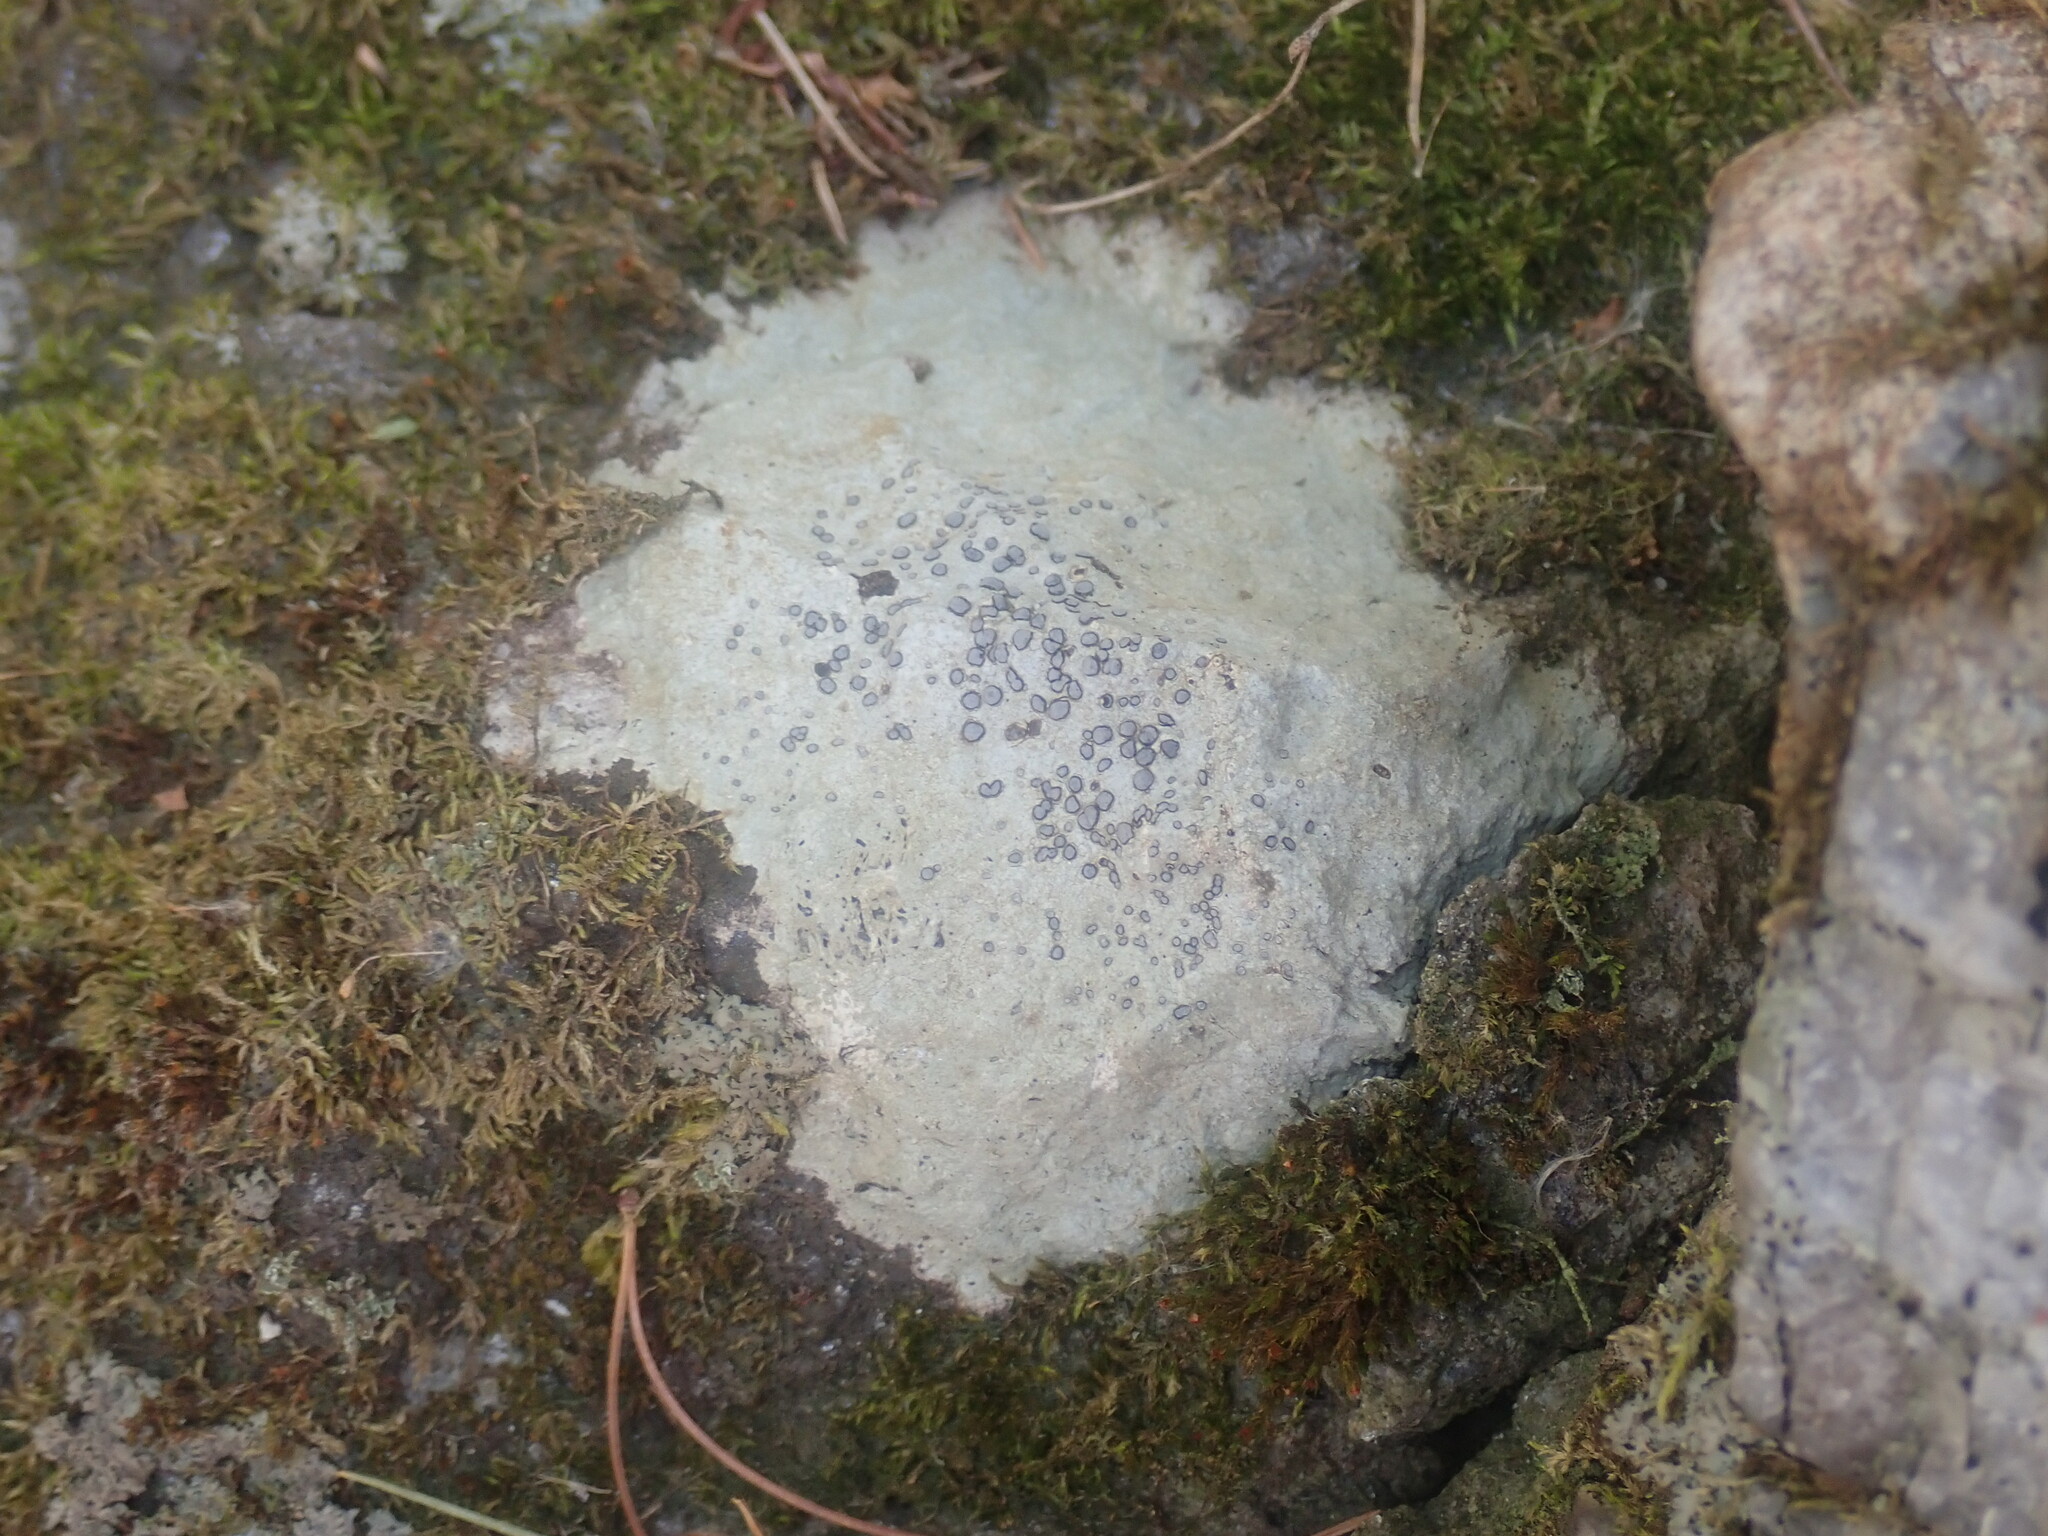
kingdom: Fungi
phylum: Ascomycota
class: Lecanoromycetes
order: Lecideales
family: Lecideaceae
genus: Porpidia
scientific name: Porpidia albocaerulescens
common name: Smokey-eyed boulder lichen
